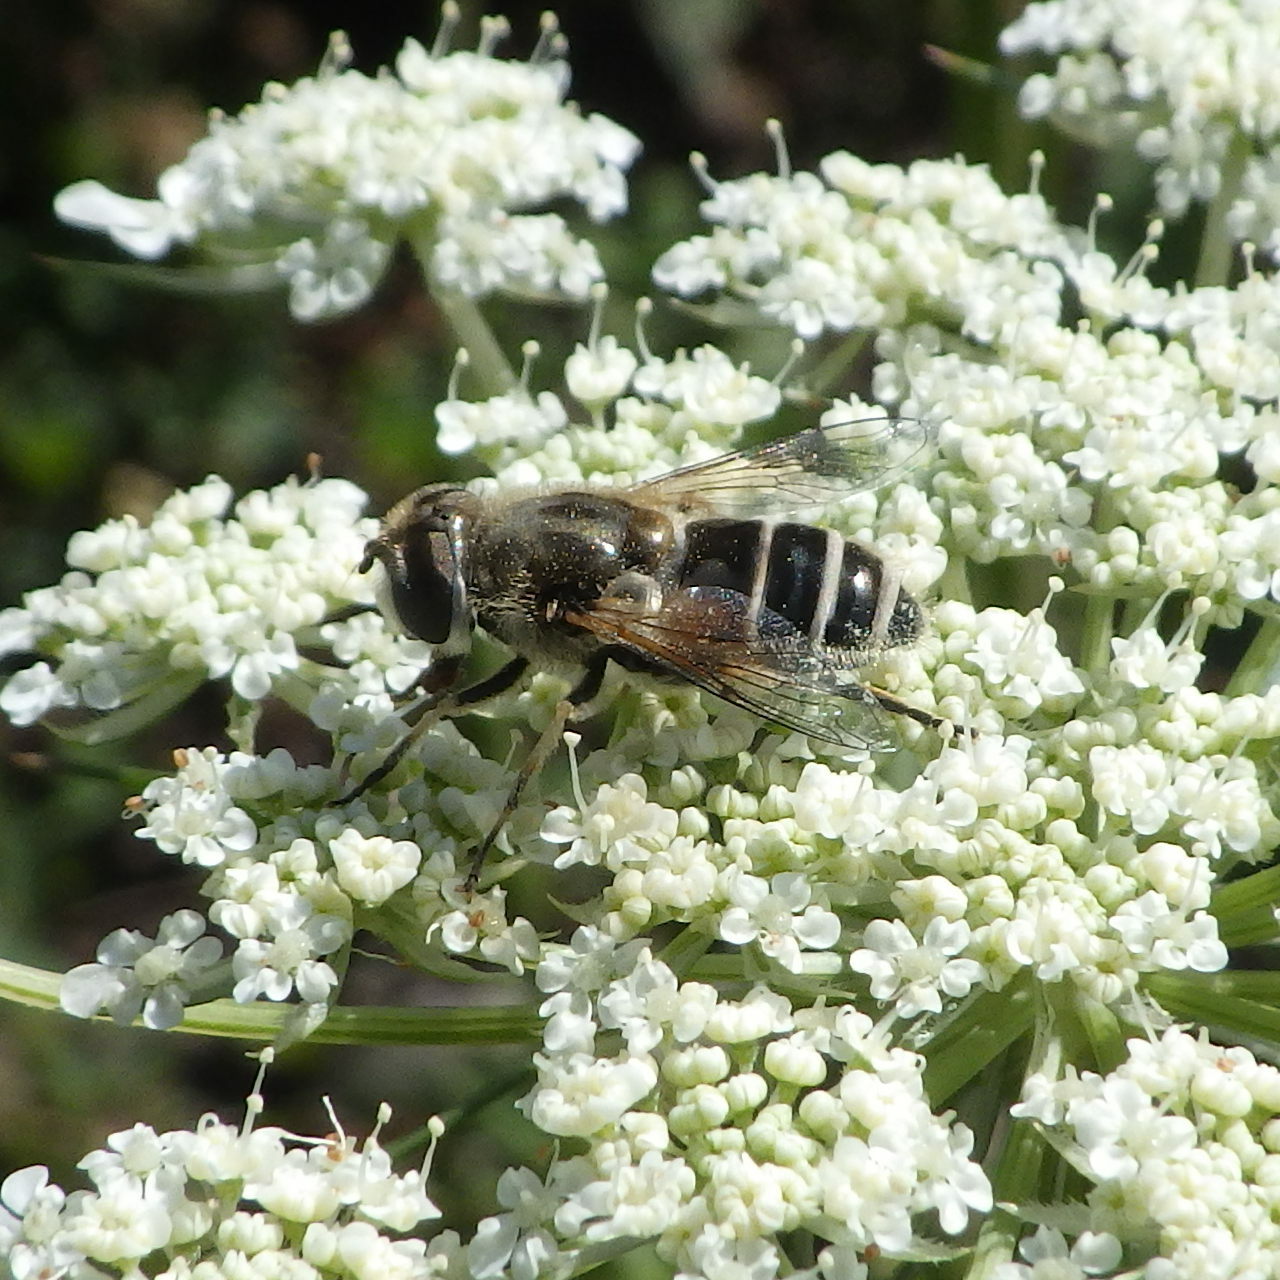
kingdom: Animalia
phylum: Arthropoda
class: Insecta
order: Diptera
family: Syrphidae
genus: Eristalis
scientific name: Eristalis arbustorum
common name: Hover fly
